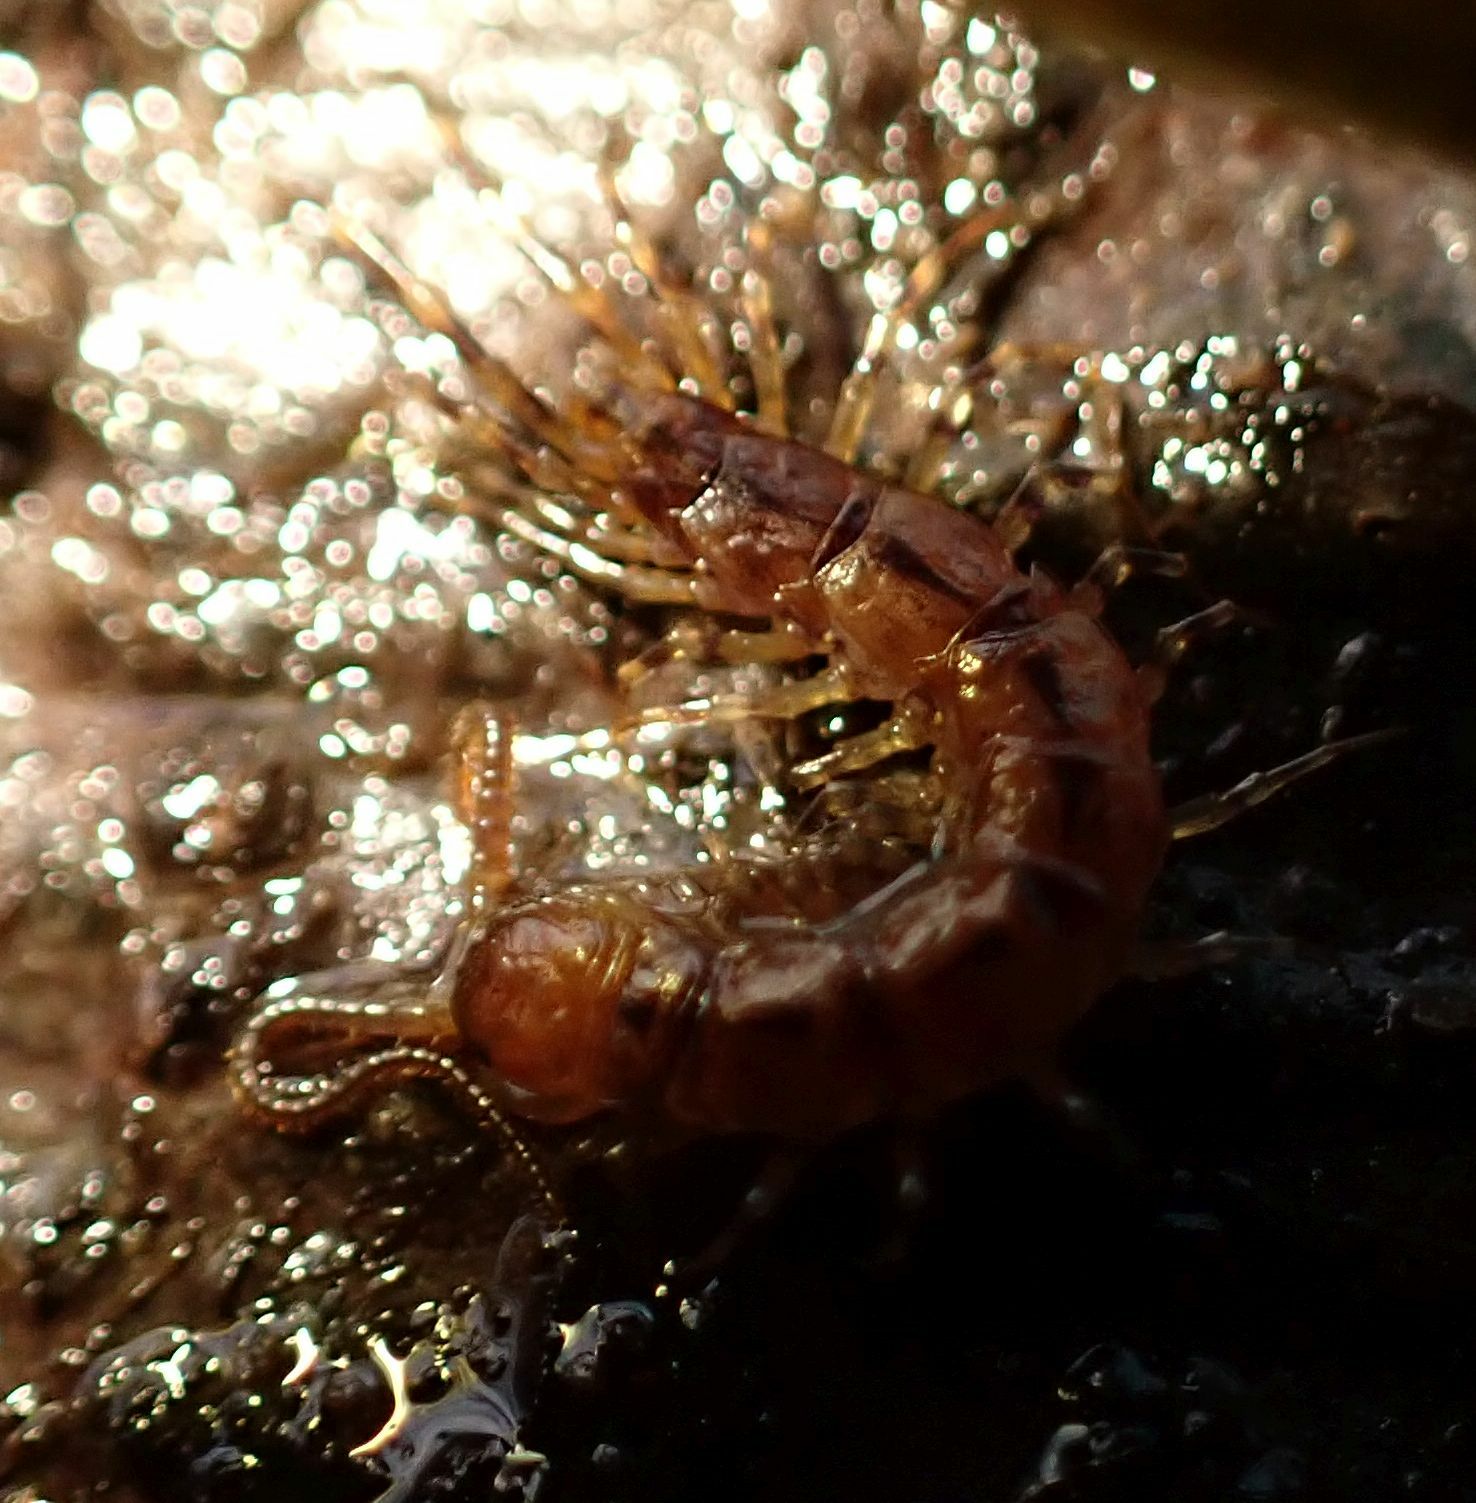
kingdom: Animalia
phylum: Arthropoda
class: Chilopoda
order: Lithobiomorpha
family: Lithobiidae
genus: Lithobius
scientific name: Lithobius variegatus
